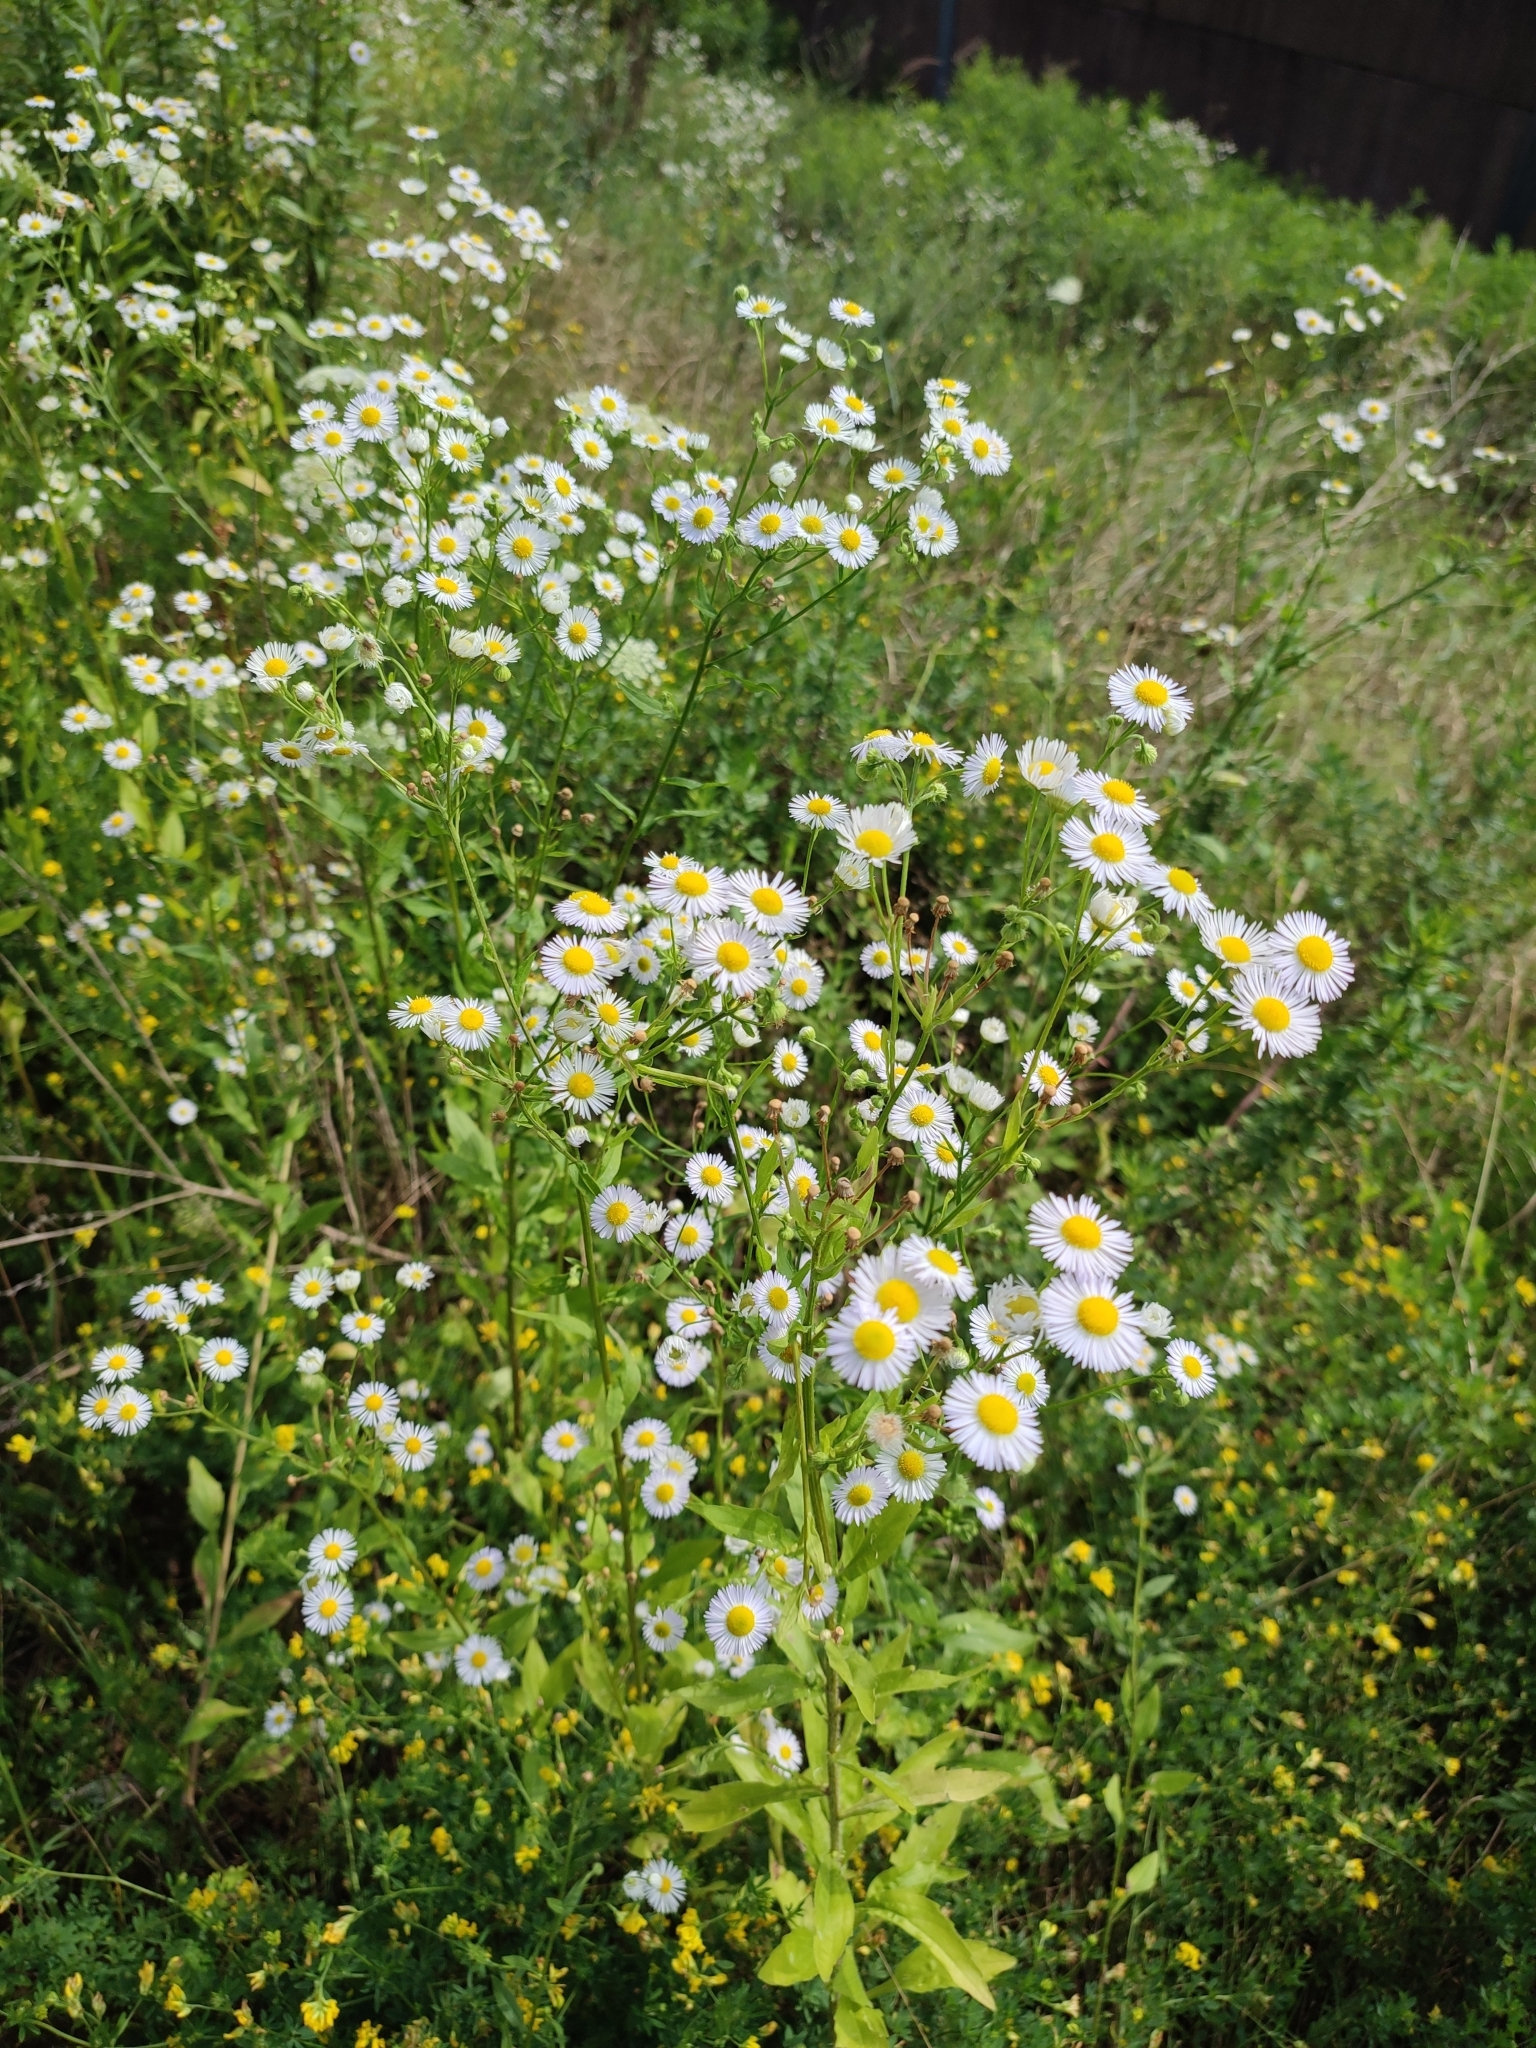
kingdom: Plantae
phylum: Tracheophyta
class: Magnoliopsida
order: Asterales
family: Asteraceae
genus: Erigeron
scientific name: Erigeron annuus
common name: Tall fleabane
